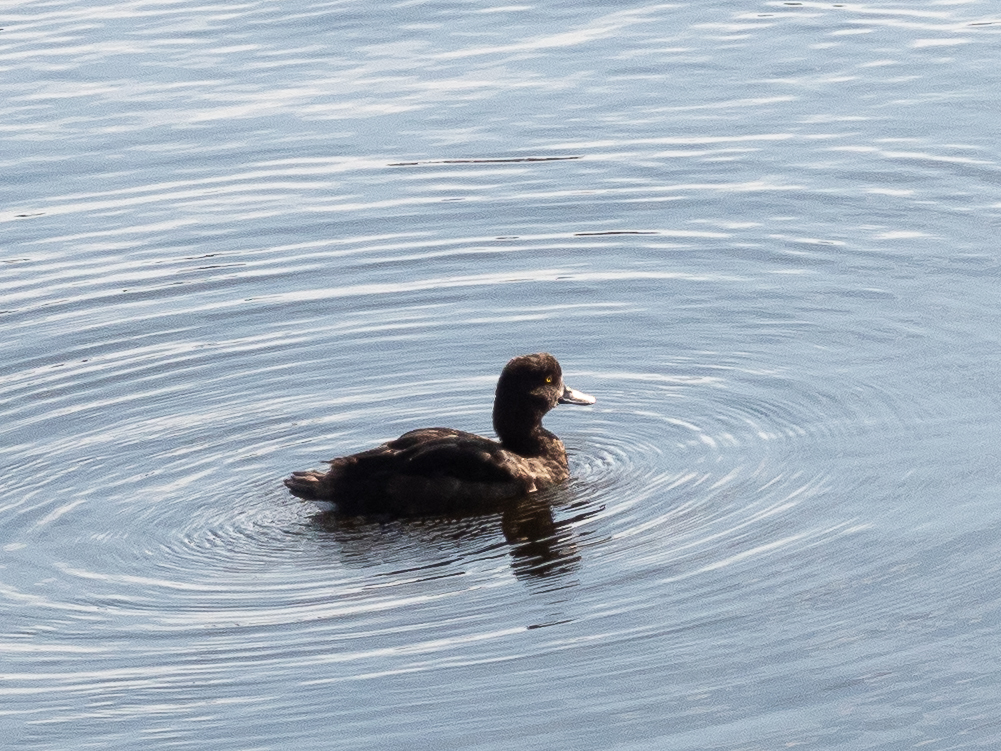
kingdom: Animalia
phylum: Chordata
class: Aves
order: Anseriformes
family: Anatidae
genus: Aythya
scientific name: Aythya fuligula
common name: Tufted duck
